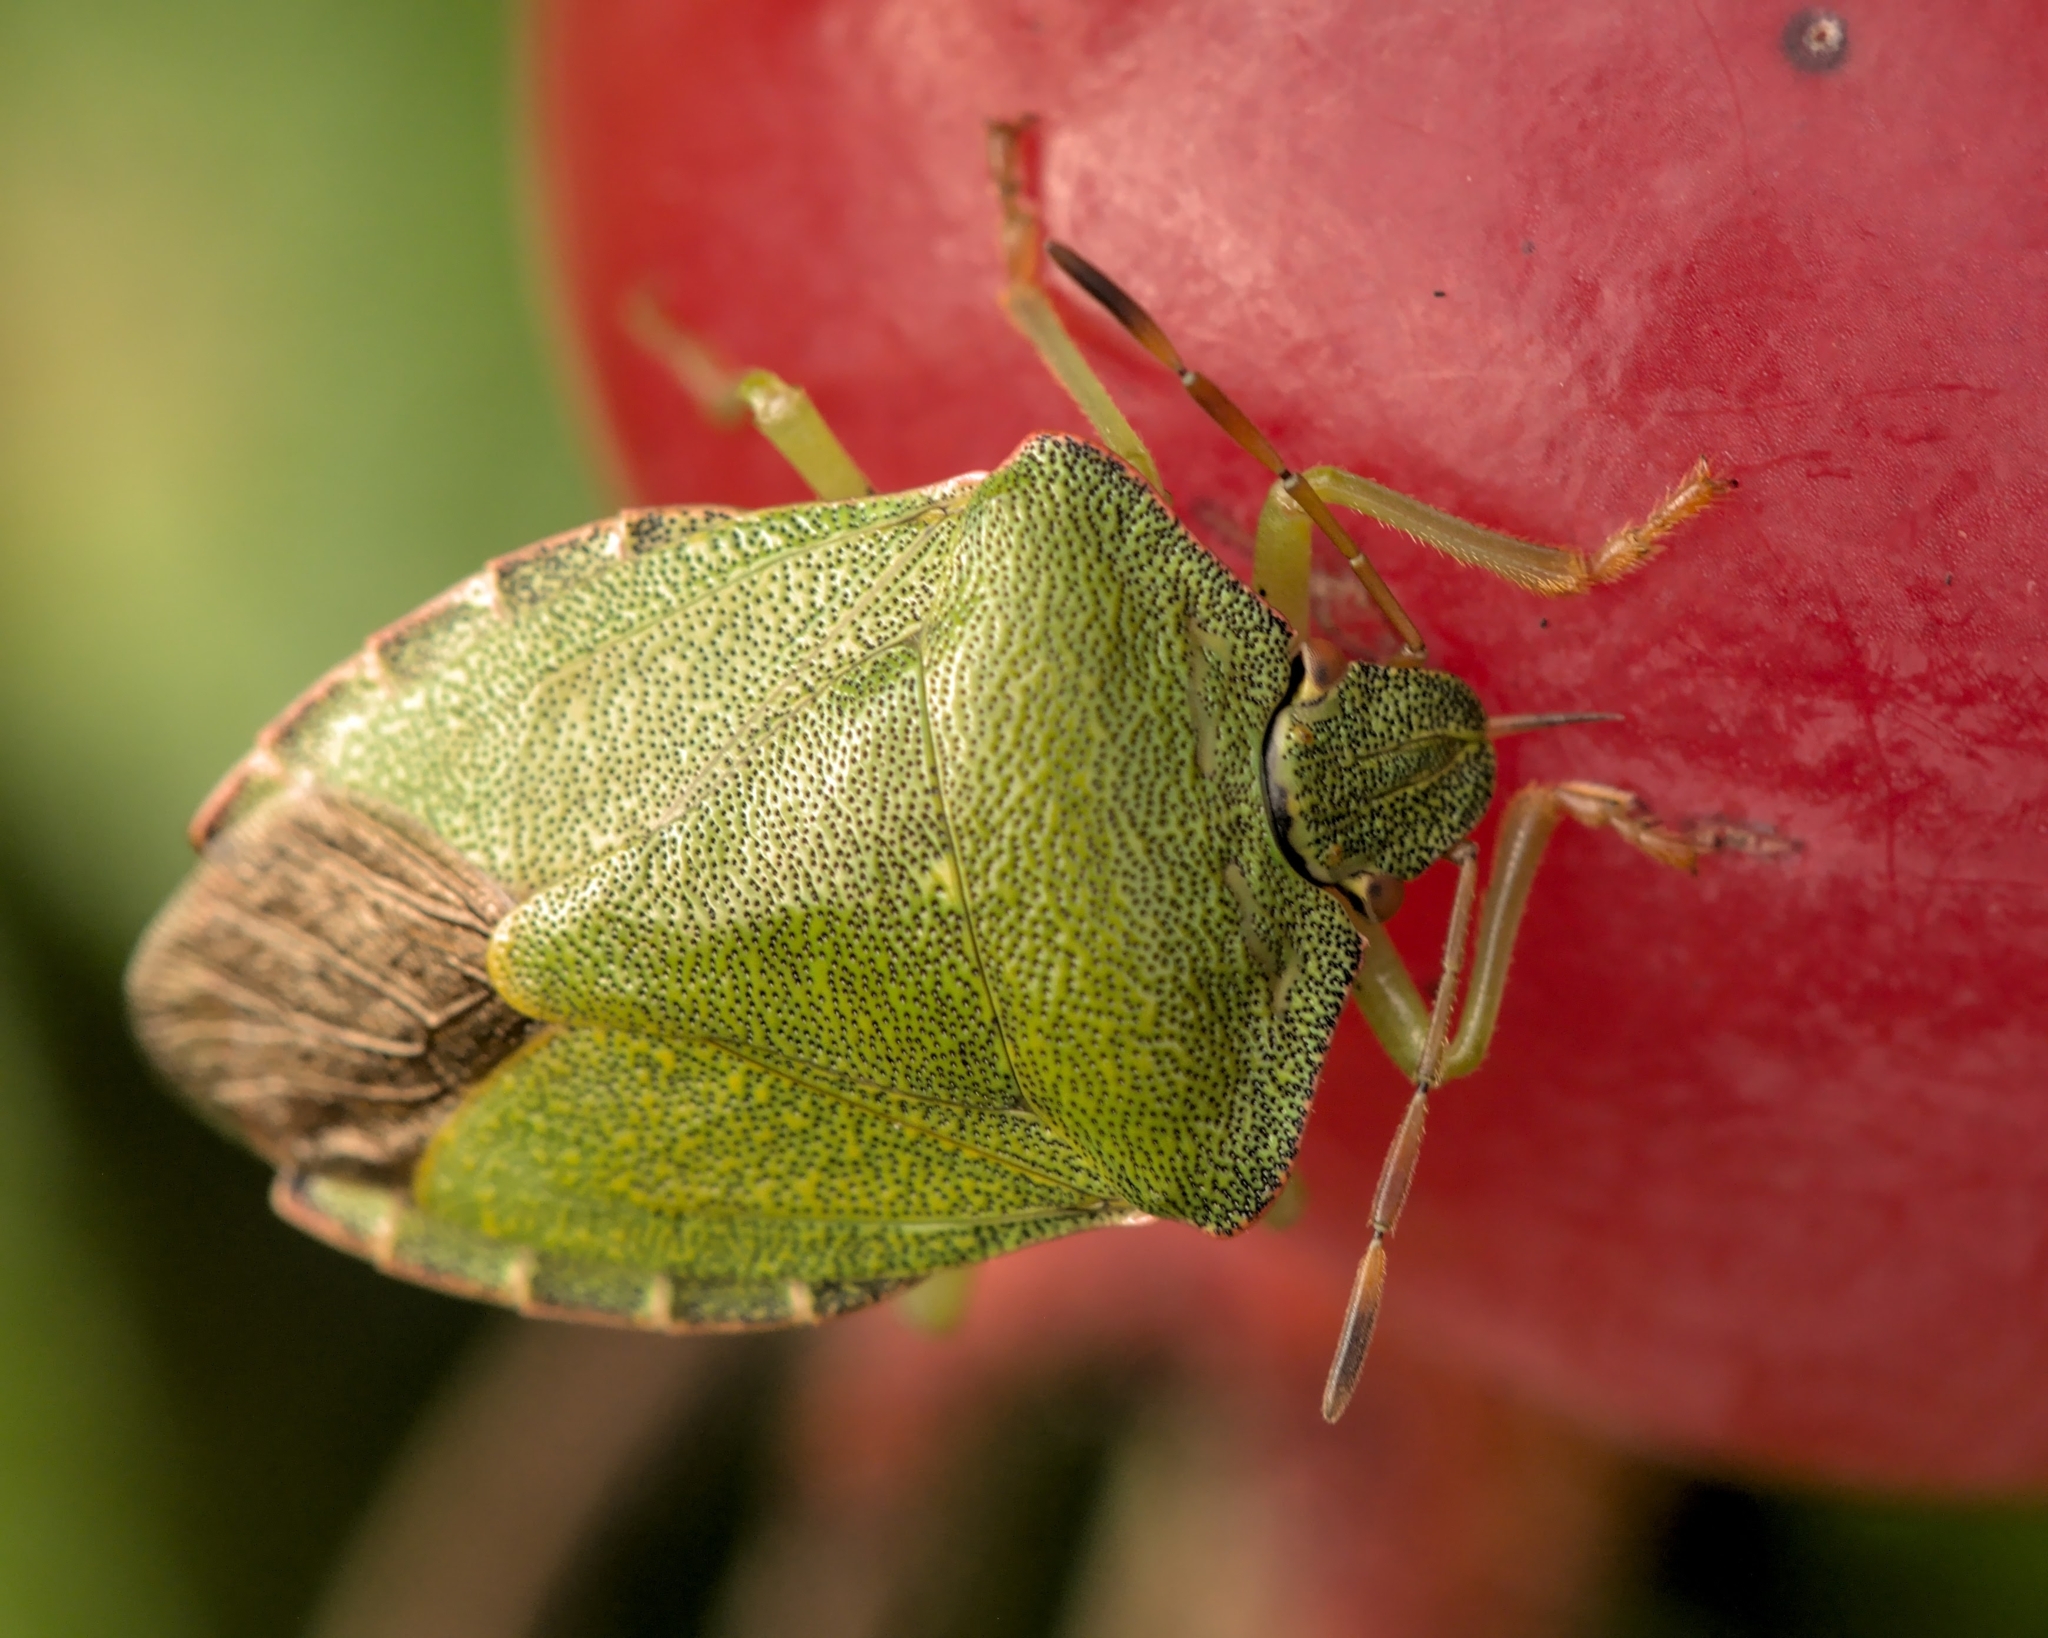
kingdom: Animalia
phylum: Arthropoda
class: Insecta
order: Hemiptera
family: Pentatomidae
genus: Palomena
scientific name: Palomena prasina
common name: Green shieldbug
